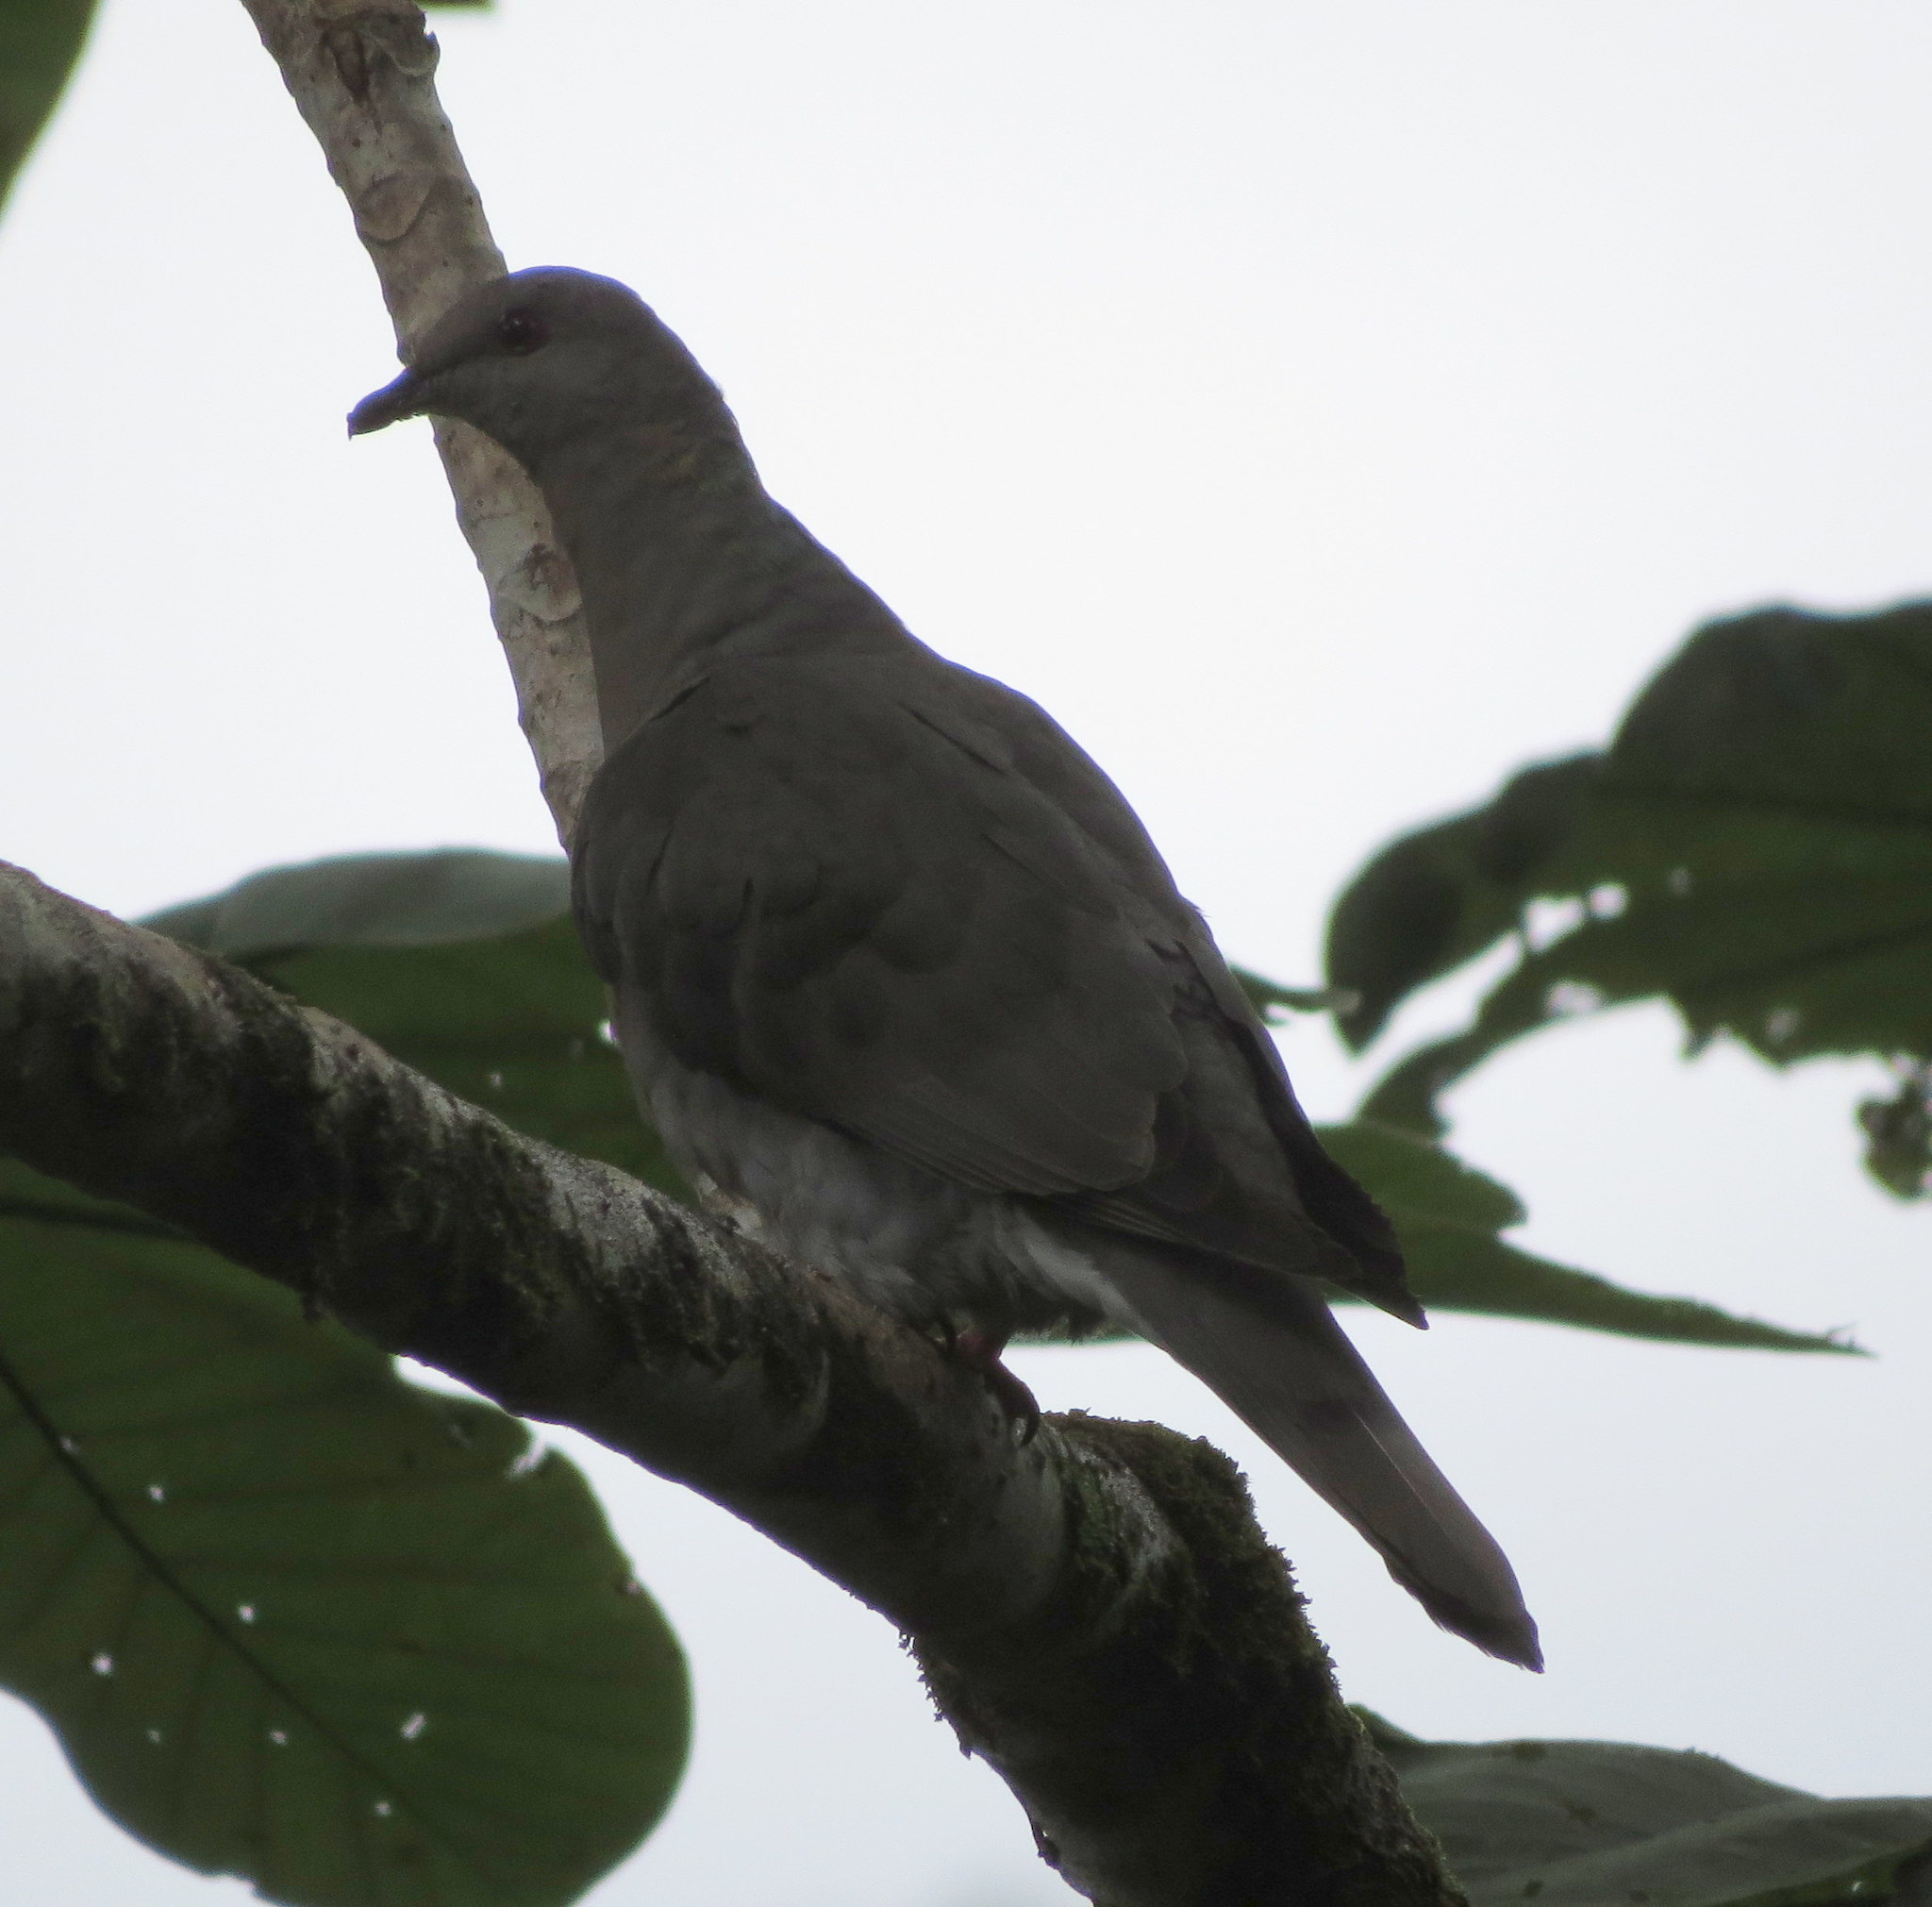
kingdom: Animalia
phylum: Chordata
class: Aves
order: Columbiformes
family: Columbidae
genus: Patagioenas
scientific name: Patagioenas caribaea
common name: Ring-tailed pigeon
